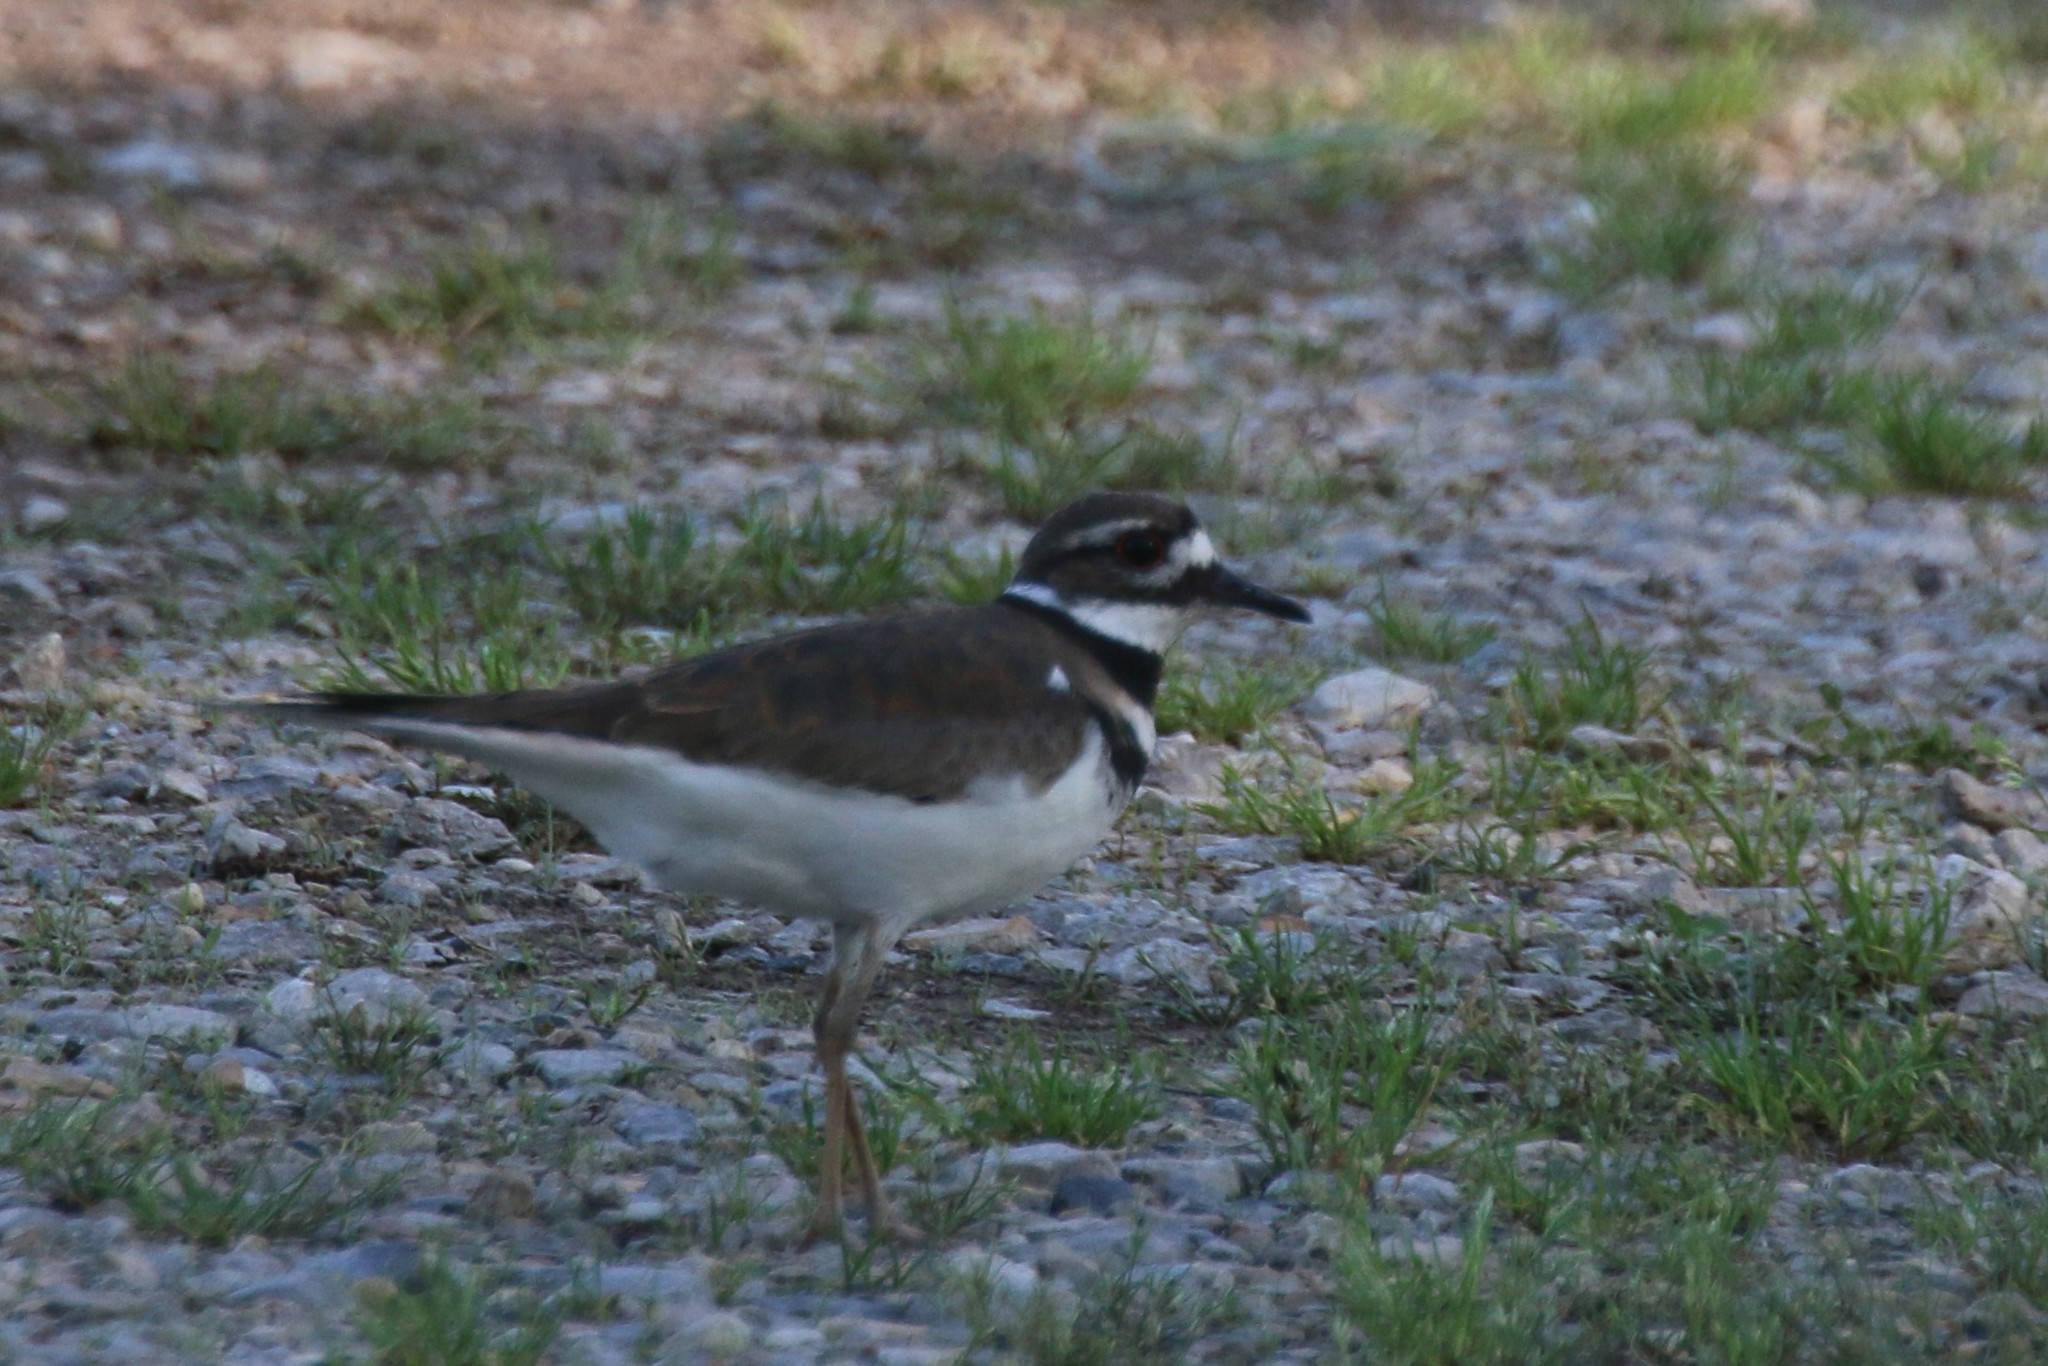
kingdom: Animalia
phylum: Chordata
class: Aves
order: Charadriiformes
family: Charadriidae
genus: Charadrius
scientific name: Charadrius vociferus
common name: Killdeer
